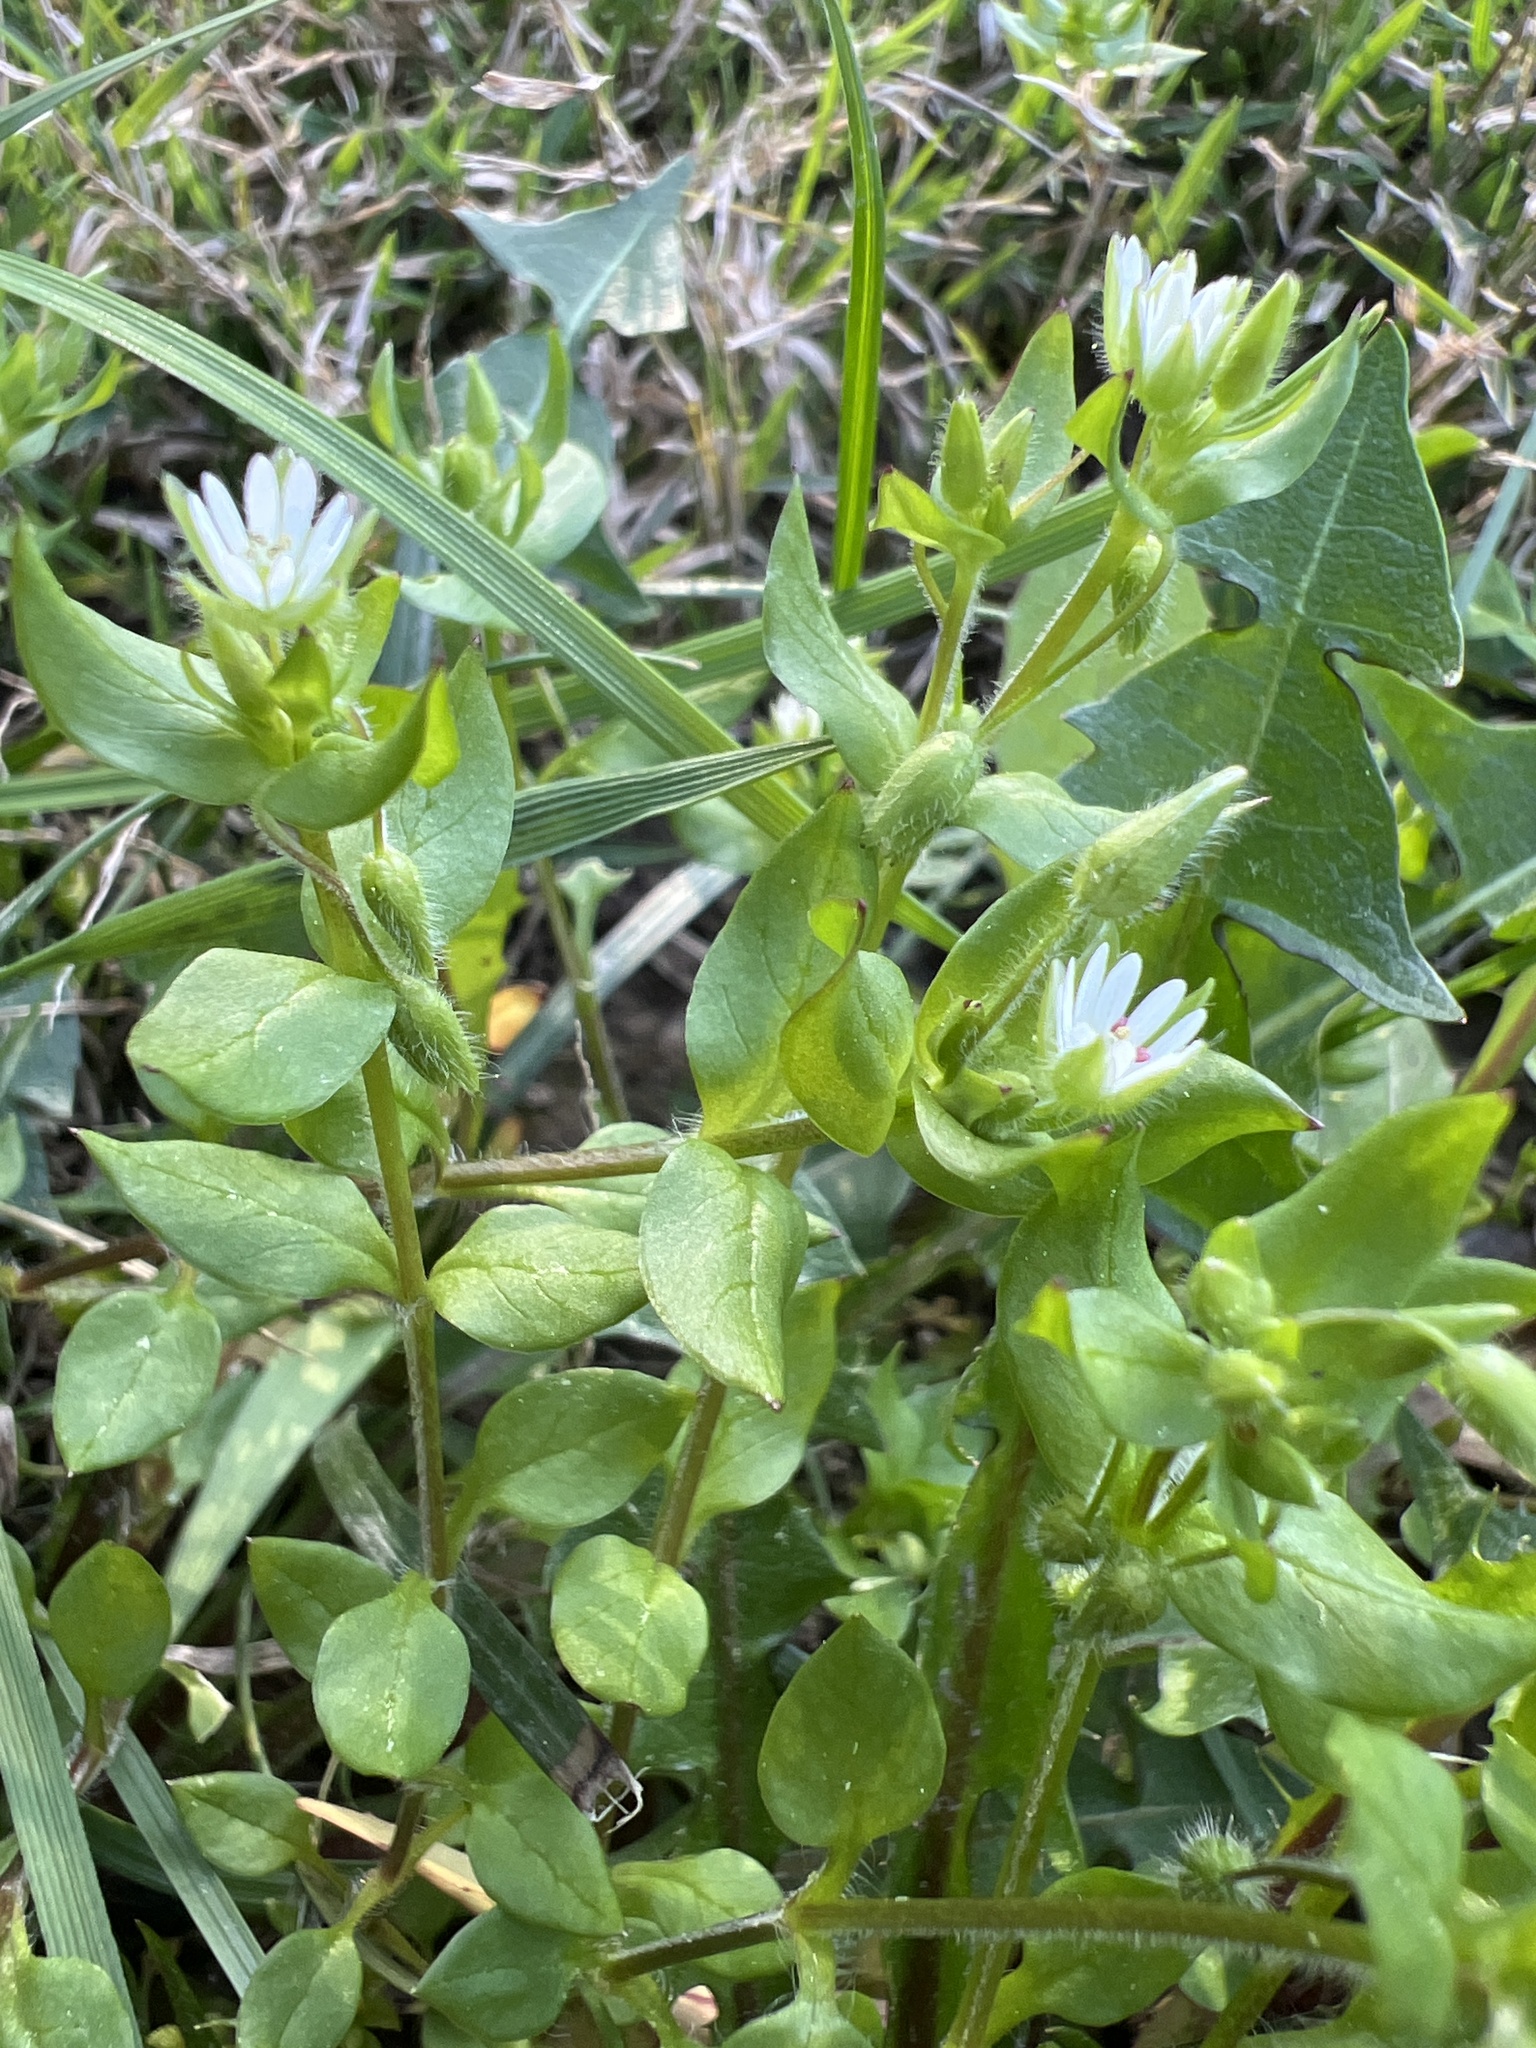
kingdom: Plantae
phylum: Tracheophyta
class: Magnoliopsida
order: Caryophyllales
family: Caryophyllaceae
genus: Stellaria
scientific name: Stellaria media
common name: Common chickweed
